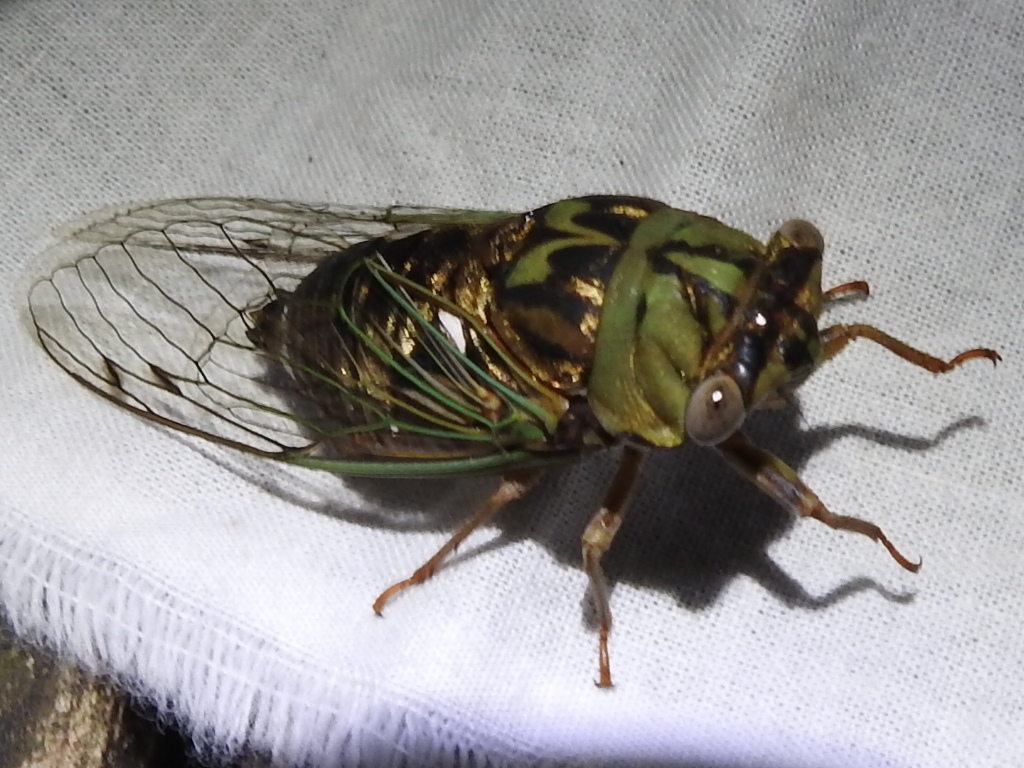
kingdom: Animalia
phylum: Arthropoda
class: Insecta
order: Hemiptera
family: Cicadidae
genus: Megatibicen
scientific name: Megatibicen resh
